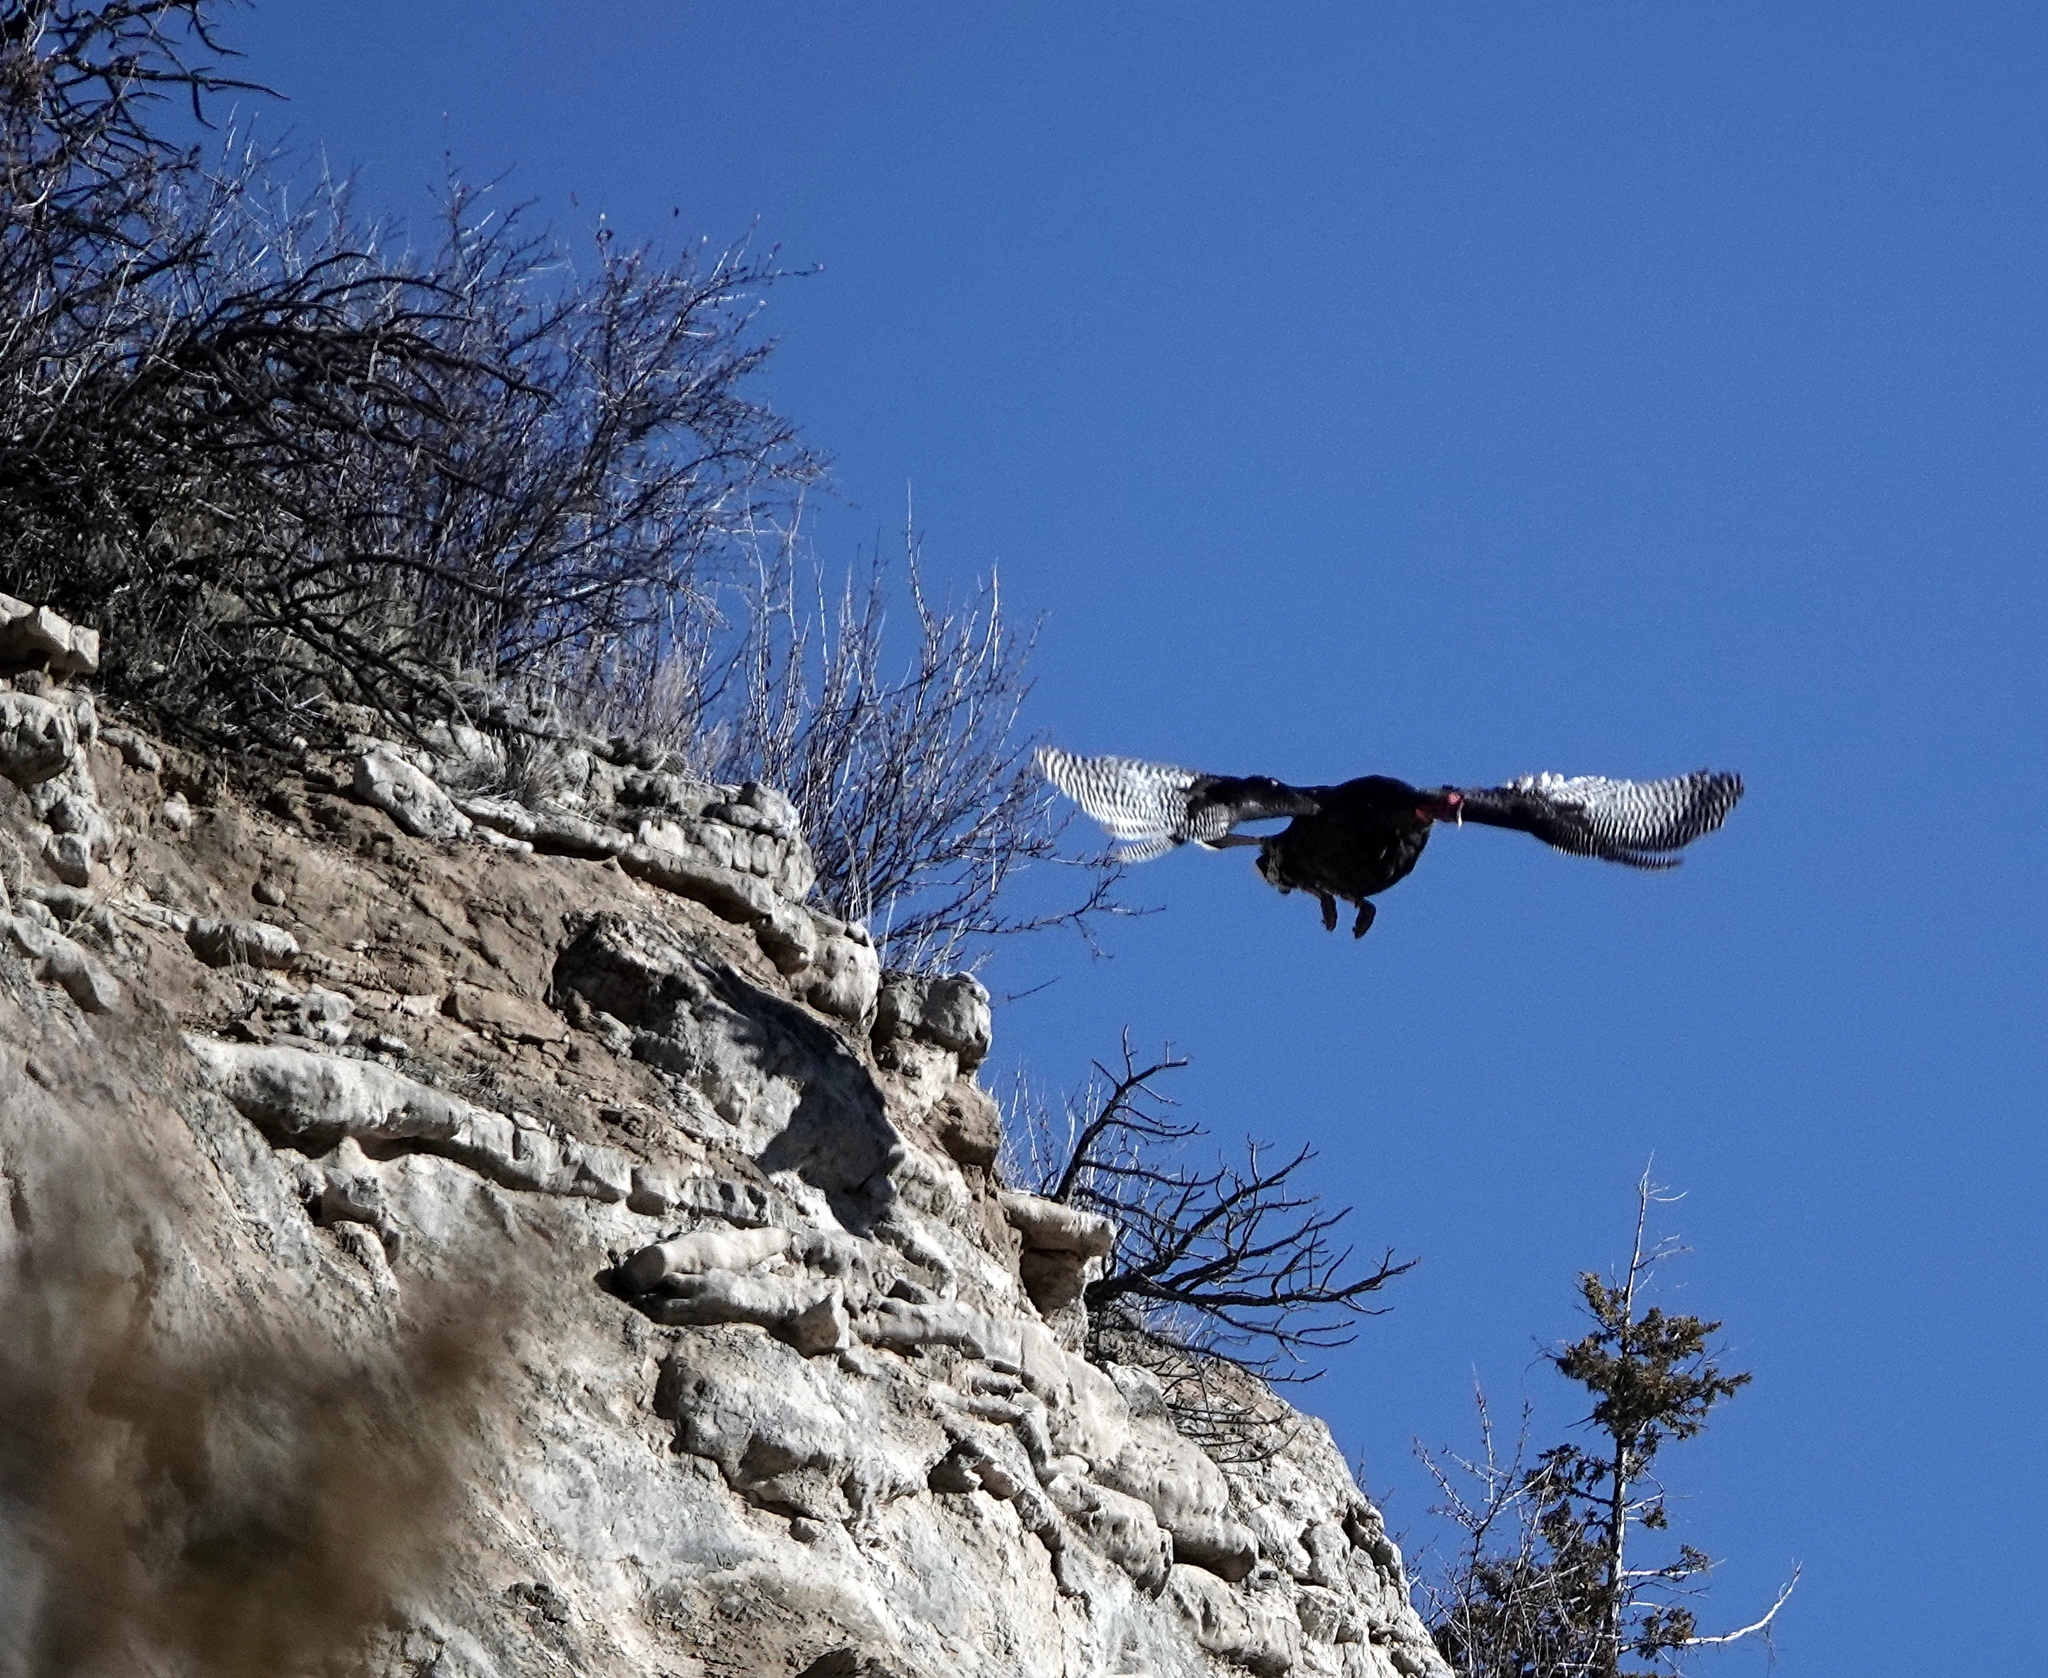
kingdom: Animalia
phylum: Chordata
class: Aves
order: Galliformes
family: Phasianidae
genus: Meleagris
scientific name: Meleagris gallopavo
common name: Wild turkey
